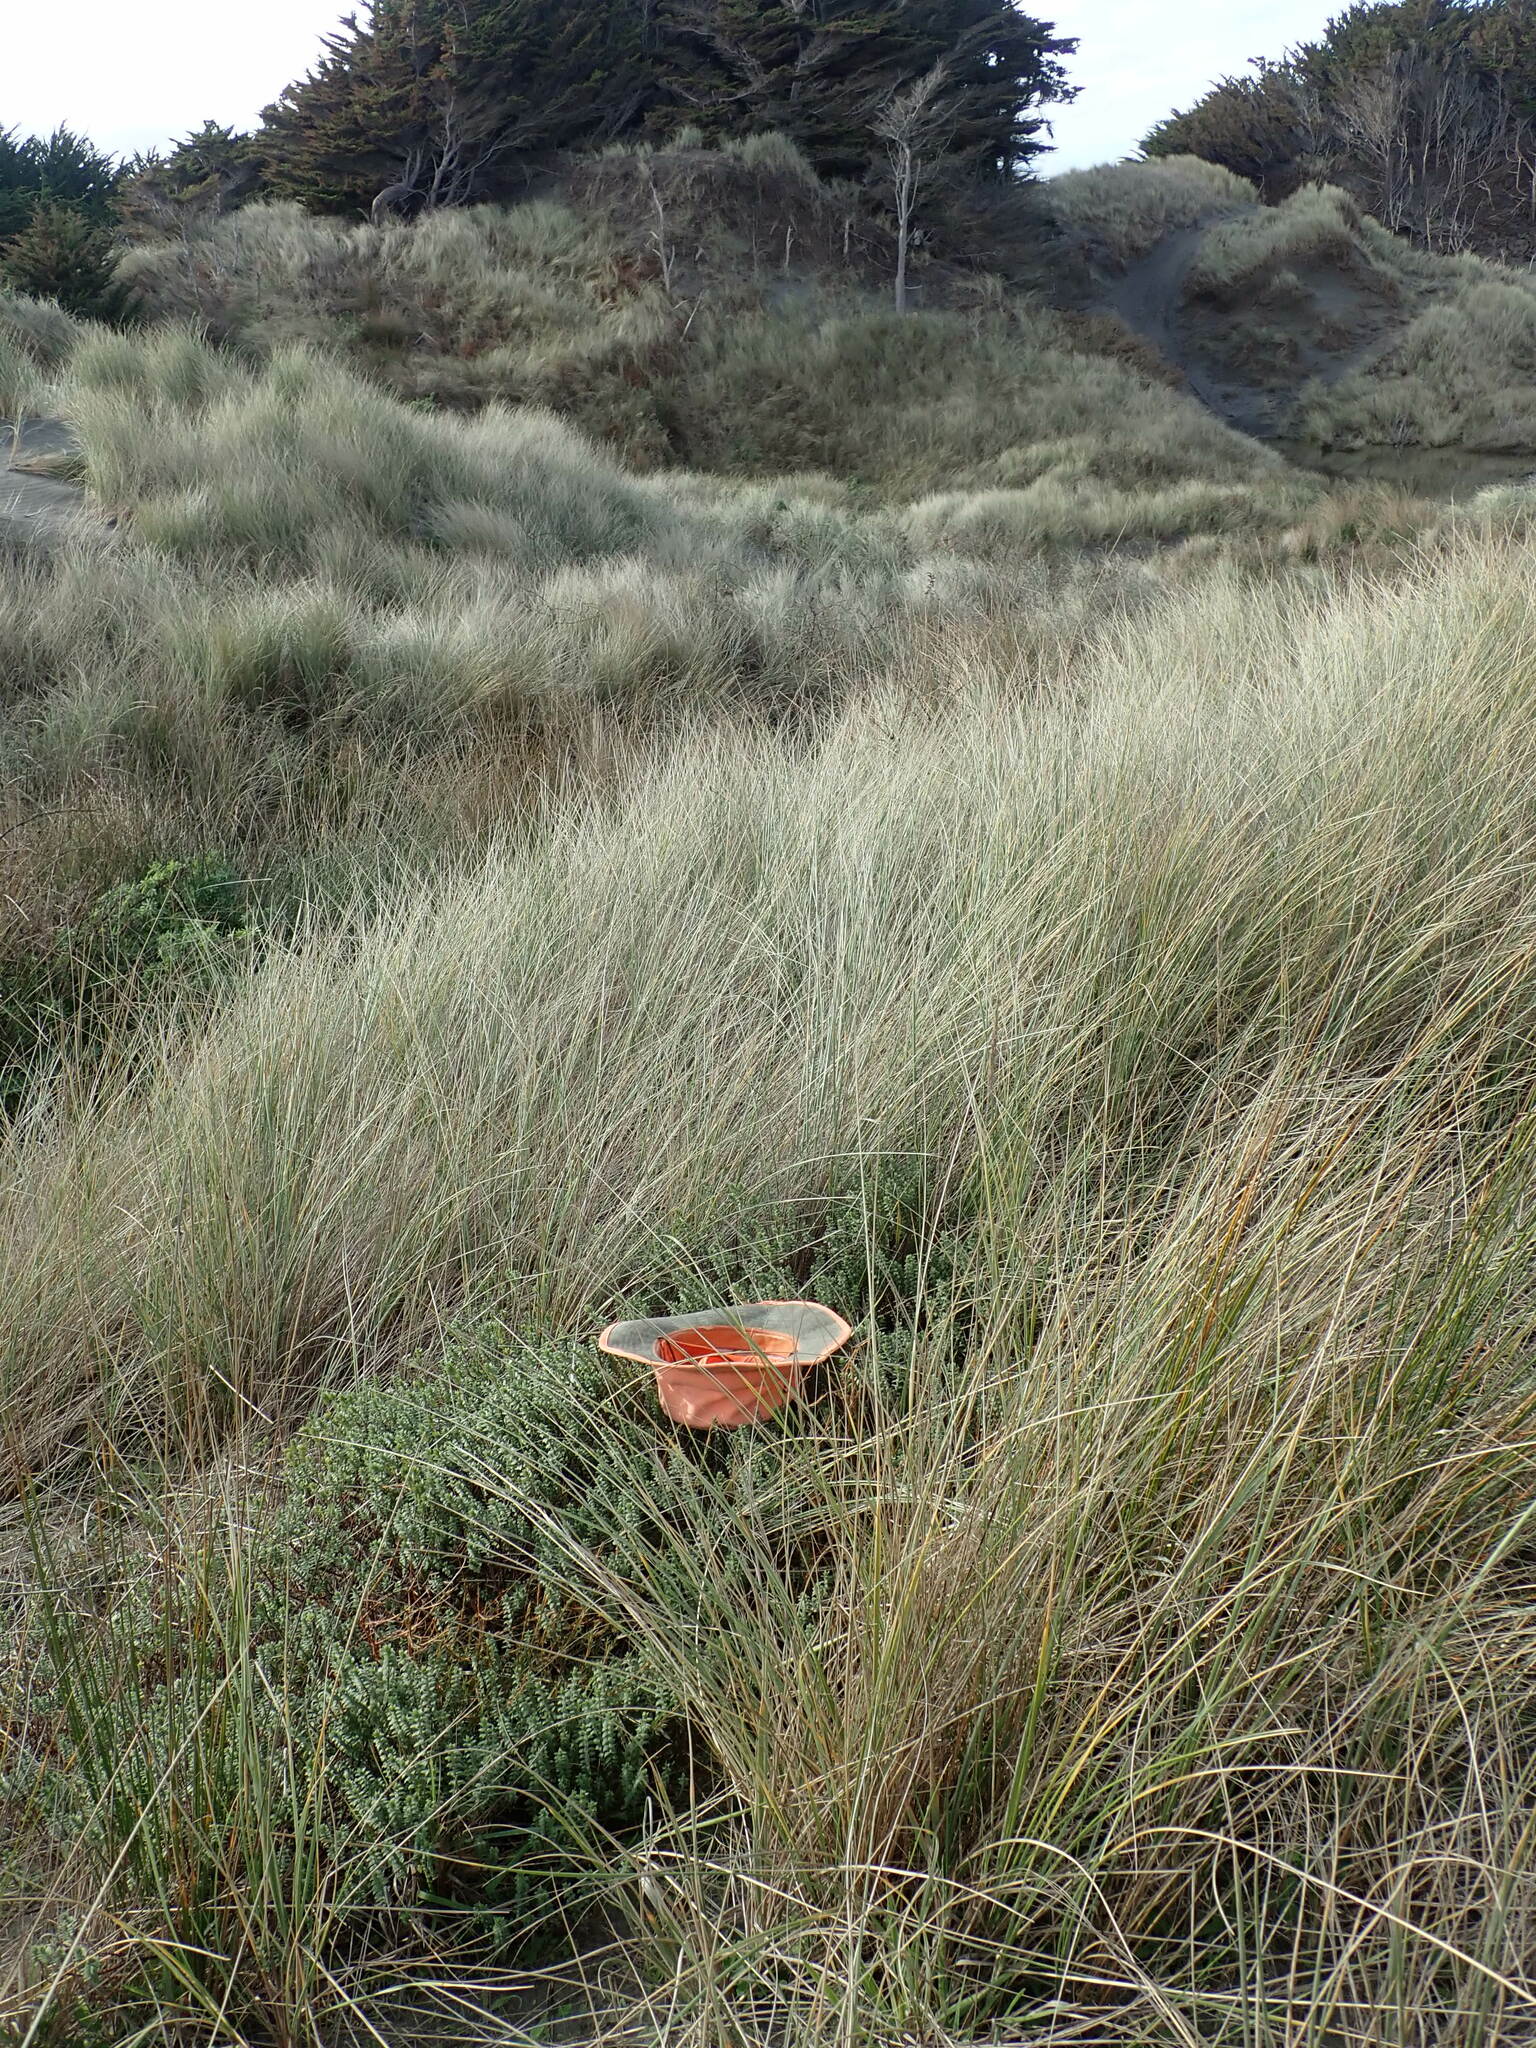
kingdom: Plantae
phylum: Tracheophyta
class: Magnoliopsida
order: Malvales
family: Thymelaeaceae
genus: Pimelea
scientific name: Pimelea villosa
